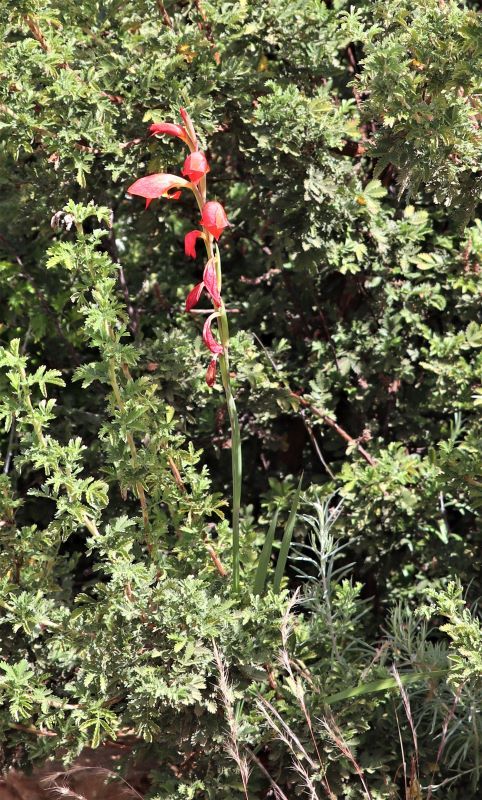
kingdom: Plantae
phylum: Tracheophyta
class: Liliopsida
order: Asparagales
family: Iridaceae
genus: Gladiolus
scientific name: Gladiolus dalenii
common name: Cornflag
